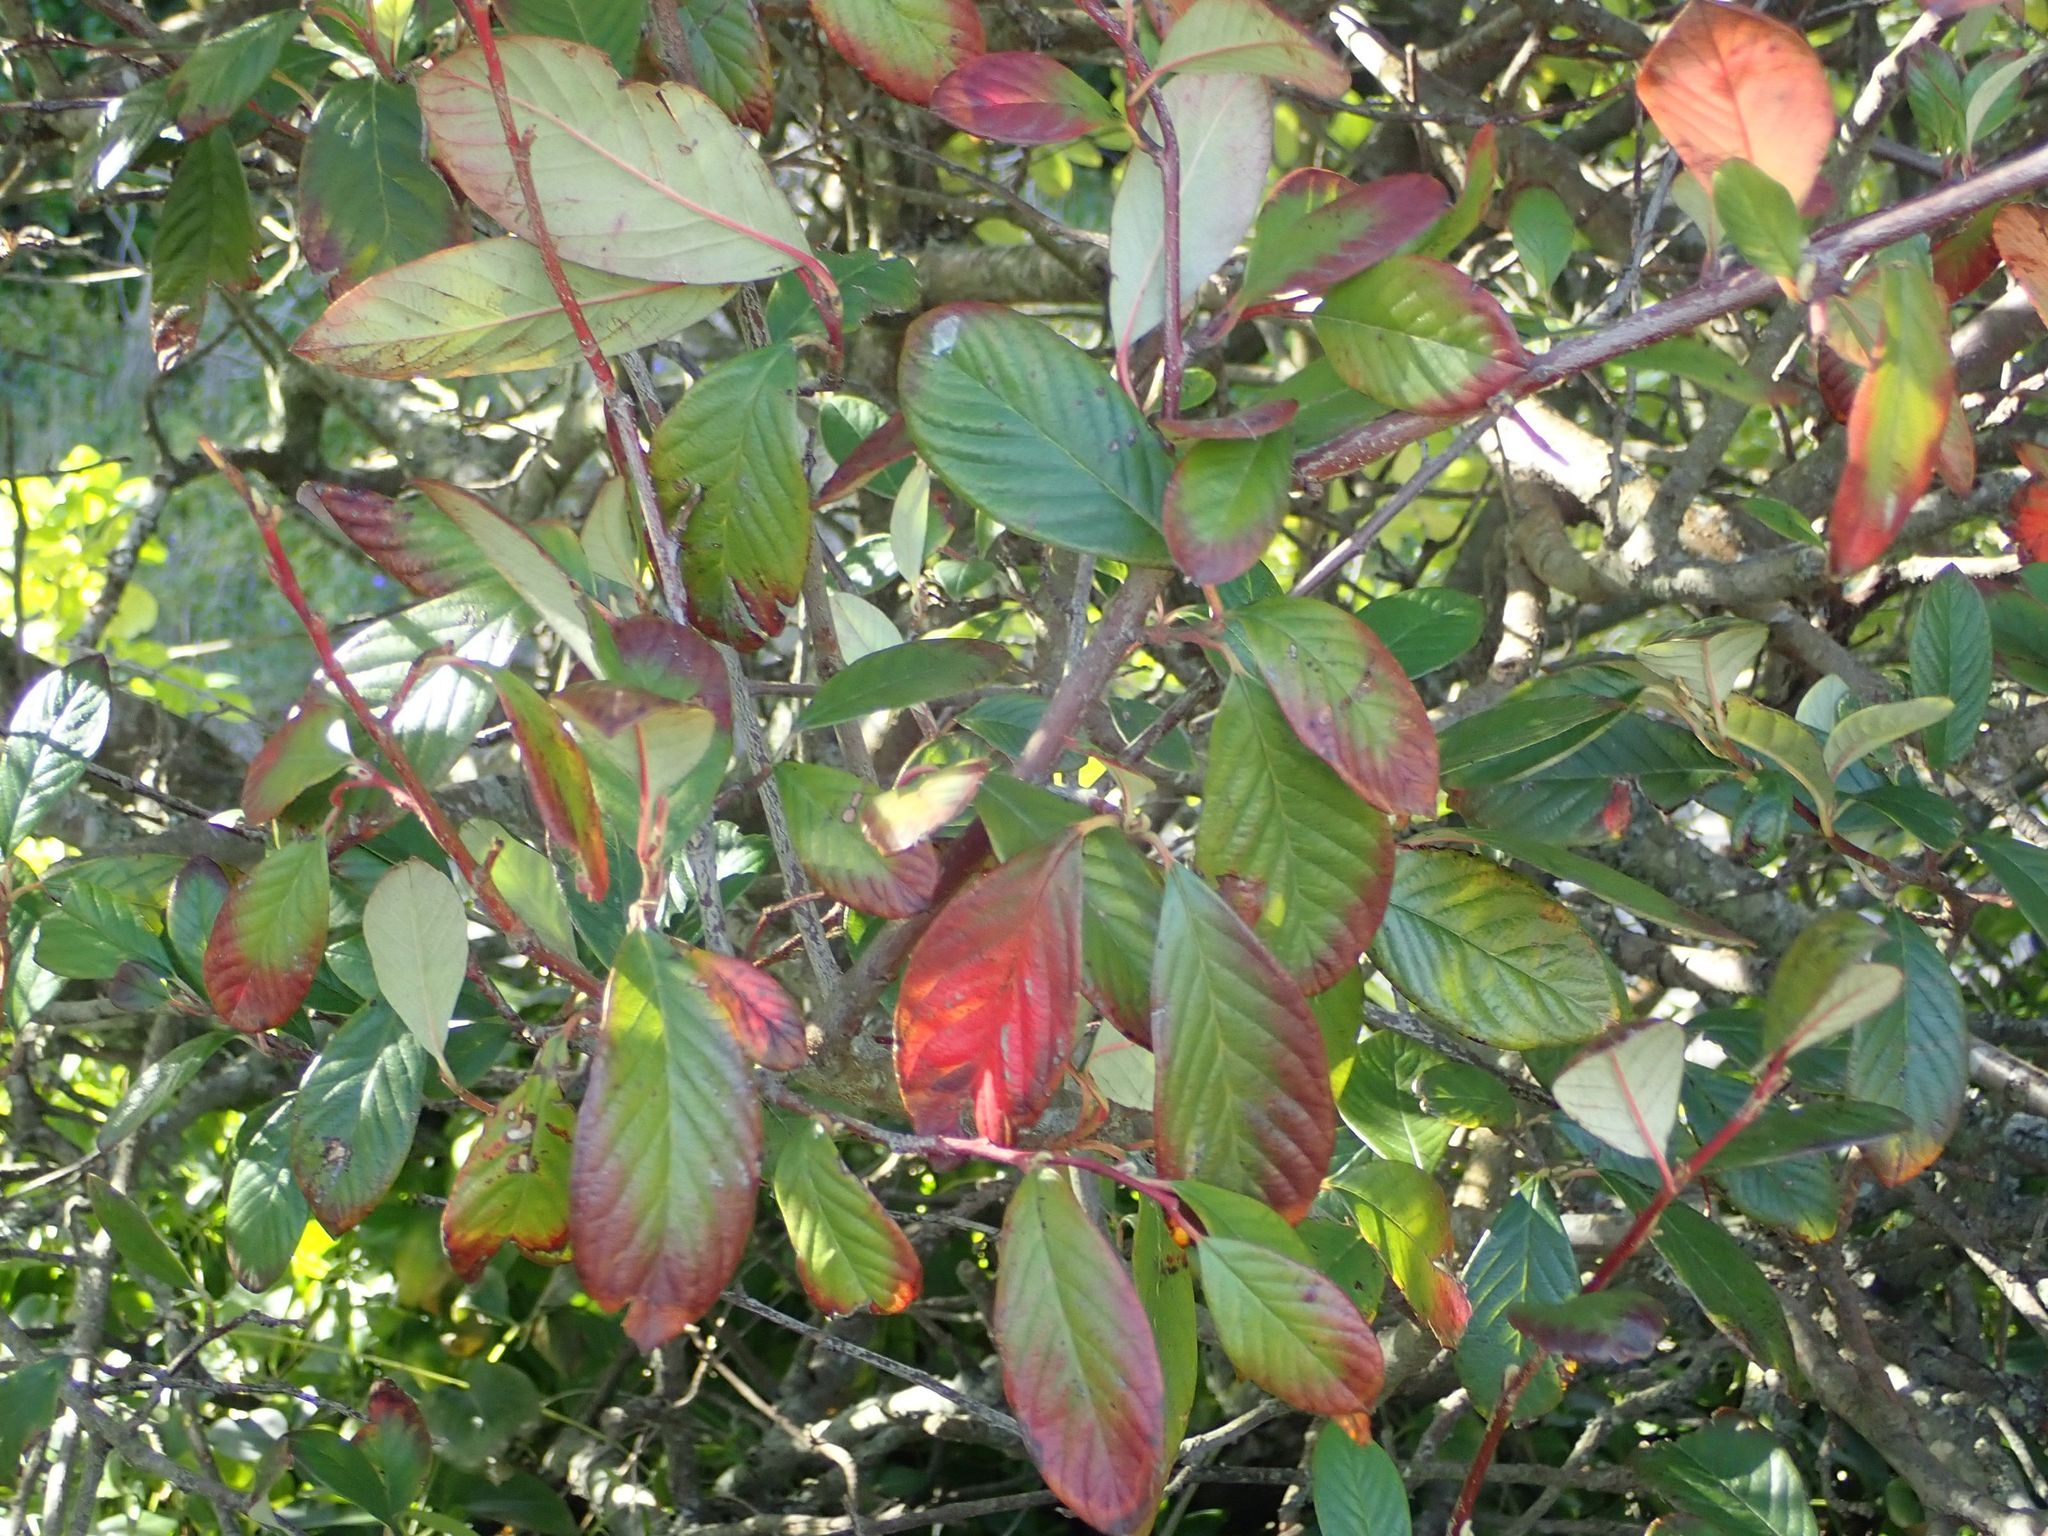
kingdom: Plantae
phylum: Tracheophyta
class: Magnoliopsida
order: Rosales
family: Rosaceae
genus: Cotoneaster
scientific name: Cotoneaster coriaceus
